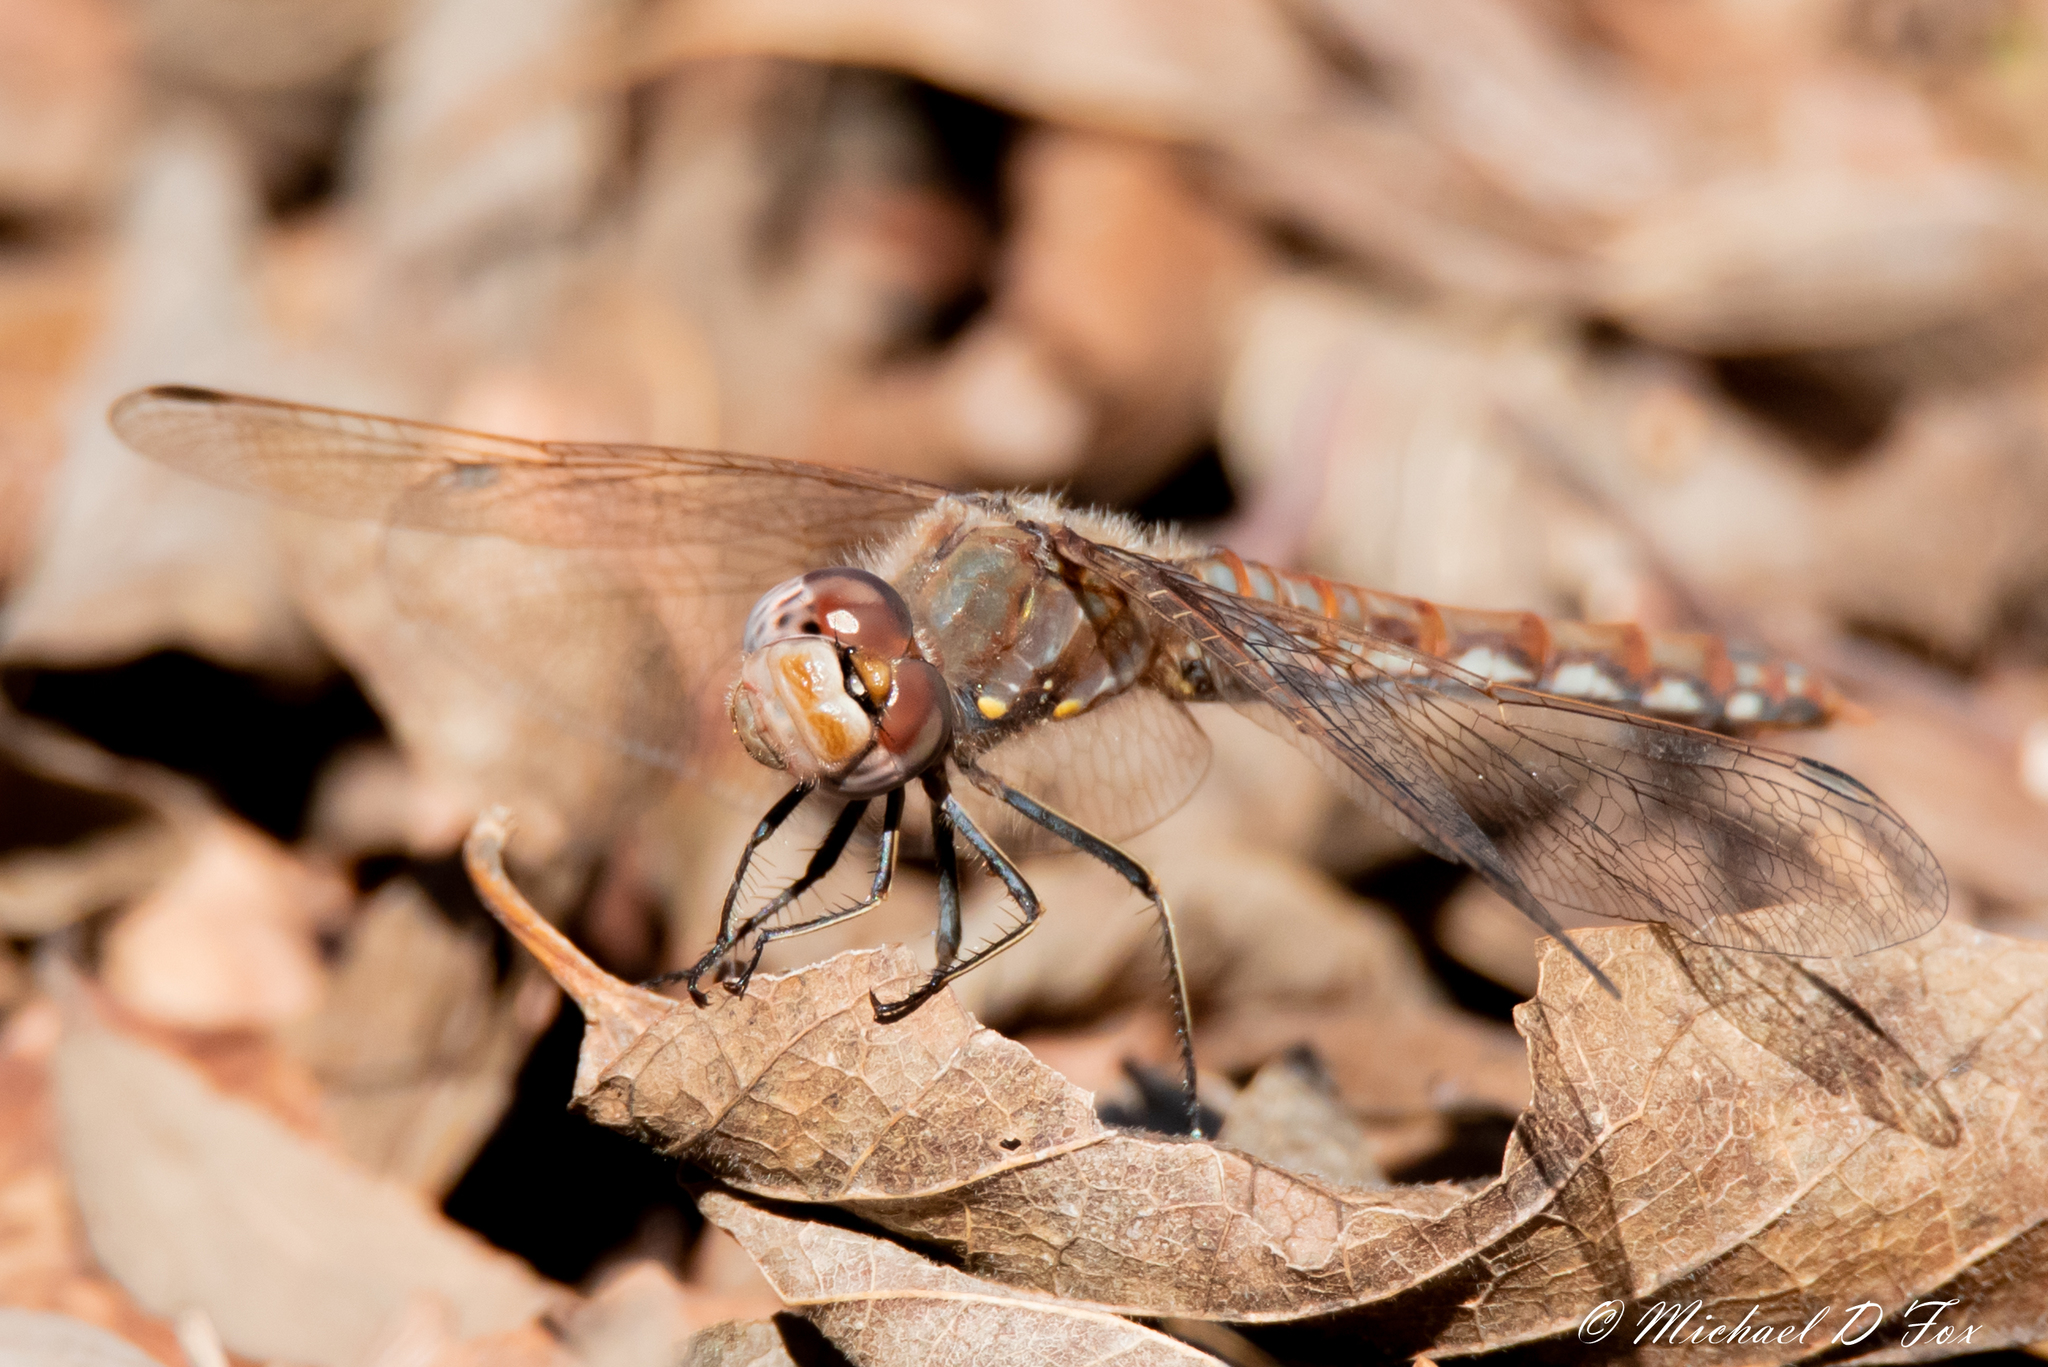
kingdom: Animalia
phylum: Arthropoda
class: Insecta
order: Odonata
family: Libellulidae
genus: Sympetrum
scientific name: Sympetrum corruptum
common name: Variegated meadowhawk
